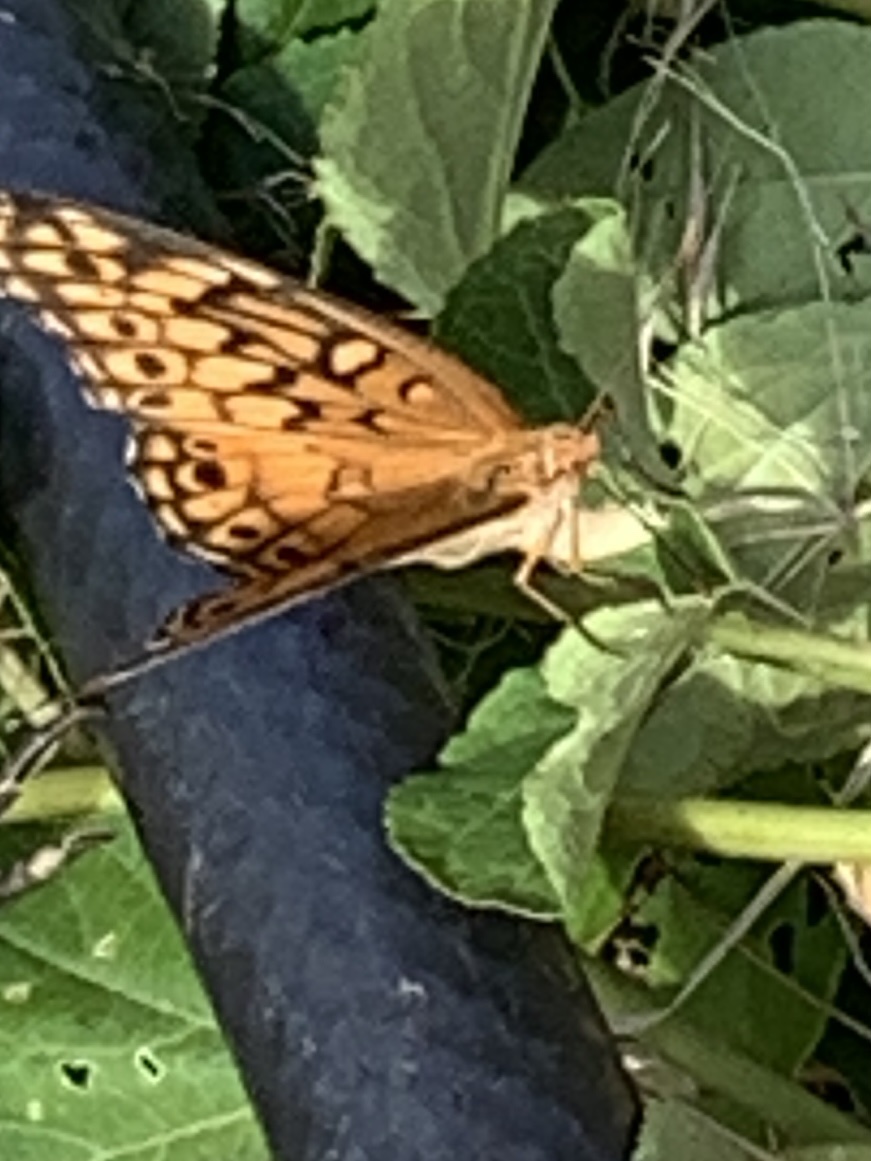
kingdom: Animalia
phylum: Arthropoda
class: Insecta
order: Lepidoptera
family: Nymphalidae
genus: Euptoieta
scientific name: Euptoieta claudia
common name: Variegated fritillary
